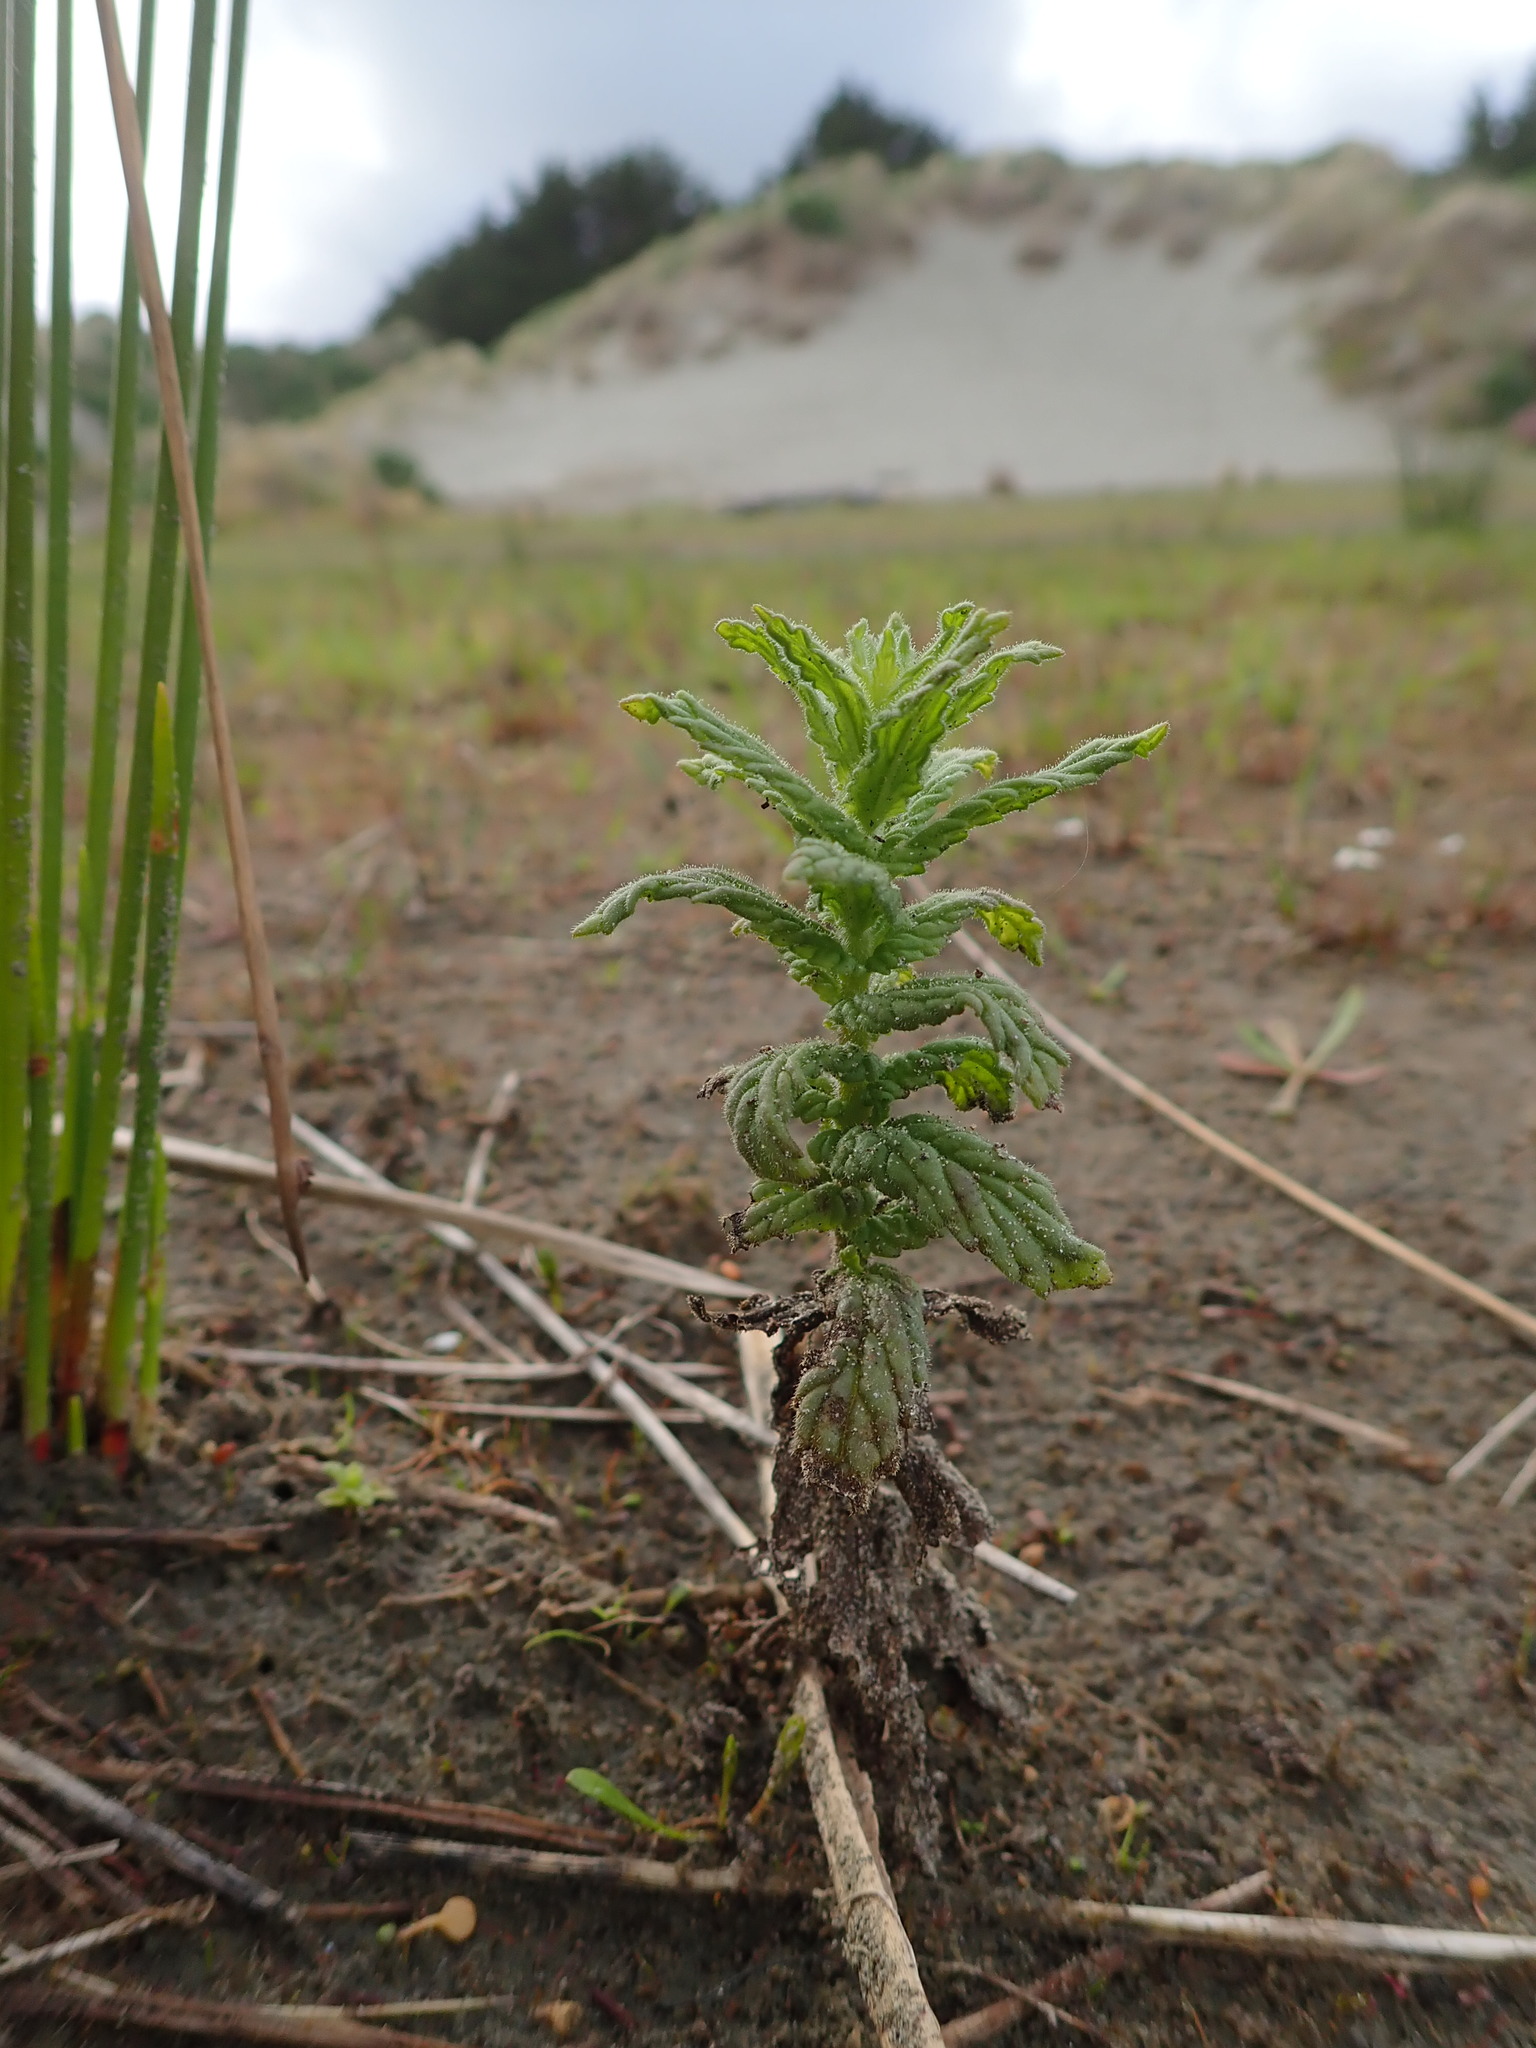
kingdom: Plantae
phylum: Tracheophyta
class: Magnoliopsida
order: Lamiales
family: Orobanchaceae
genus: Bellardia
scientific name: Bellardia viscosa
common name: Sticky parentucellia
